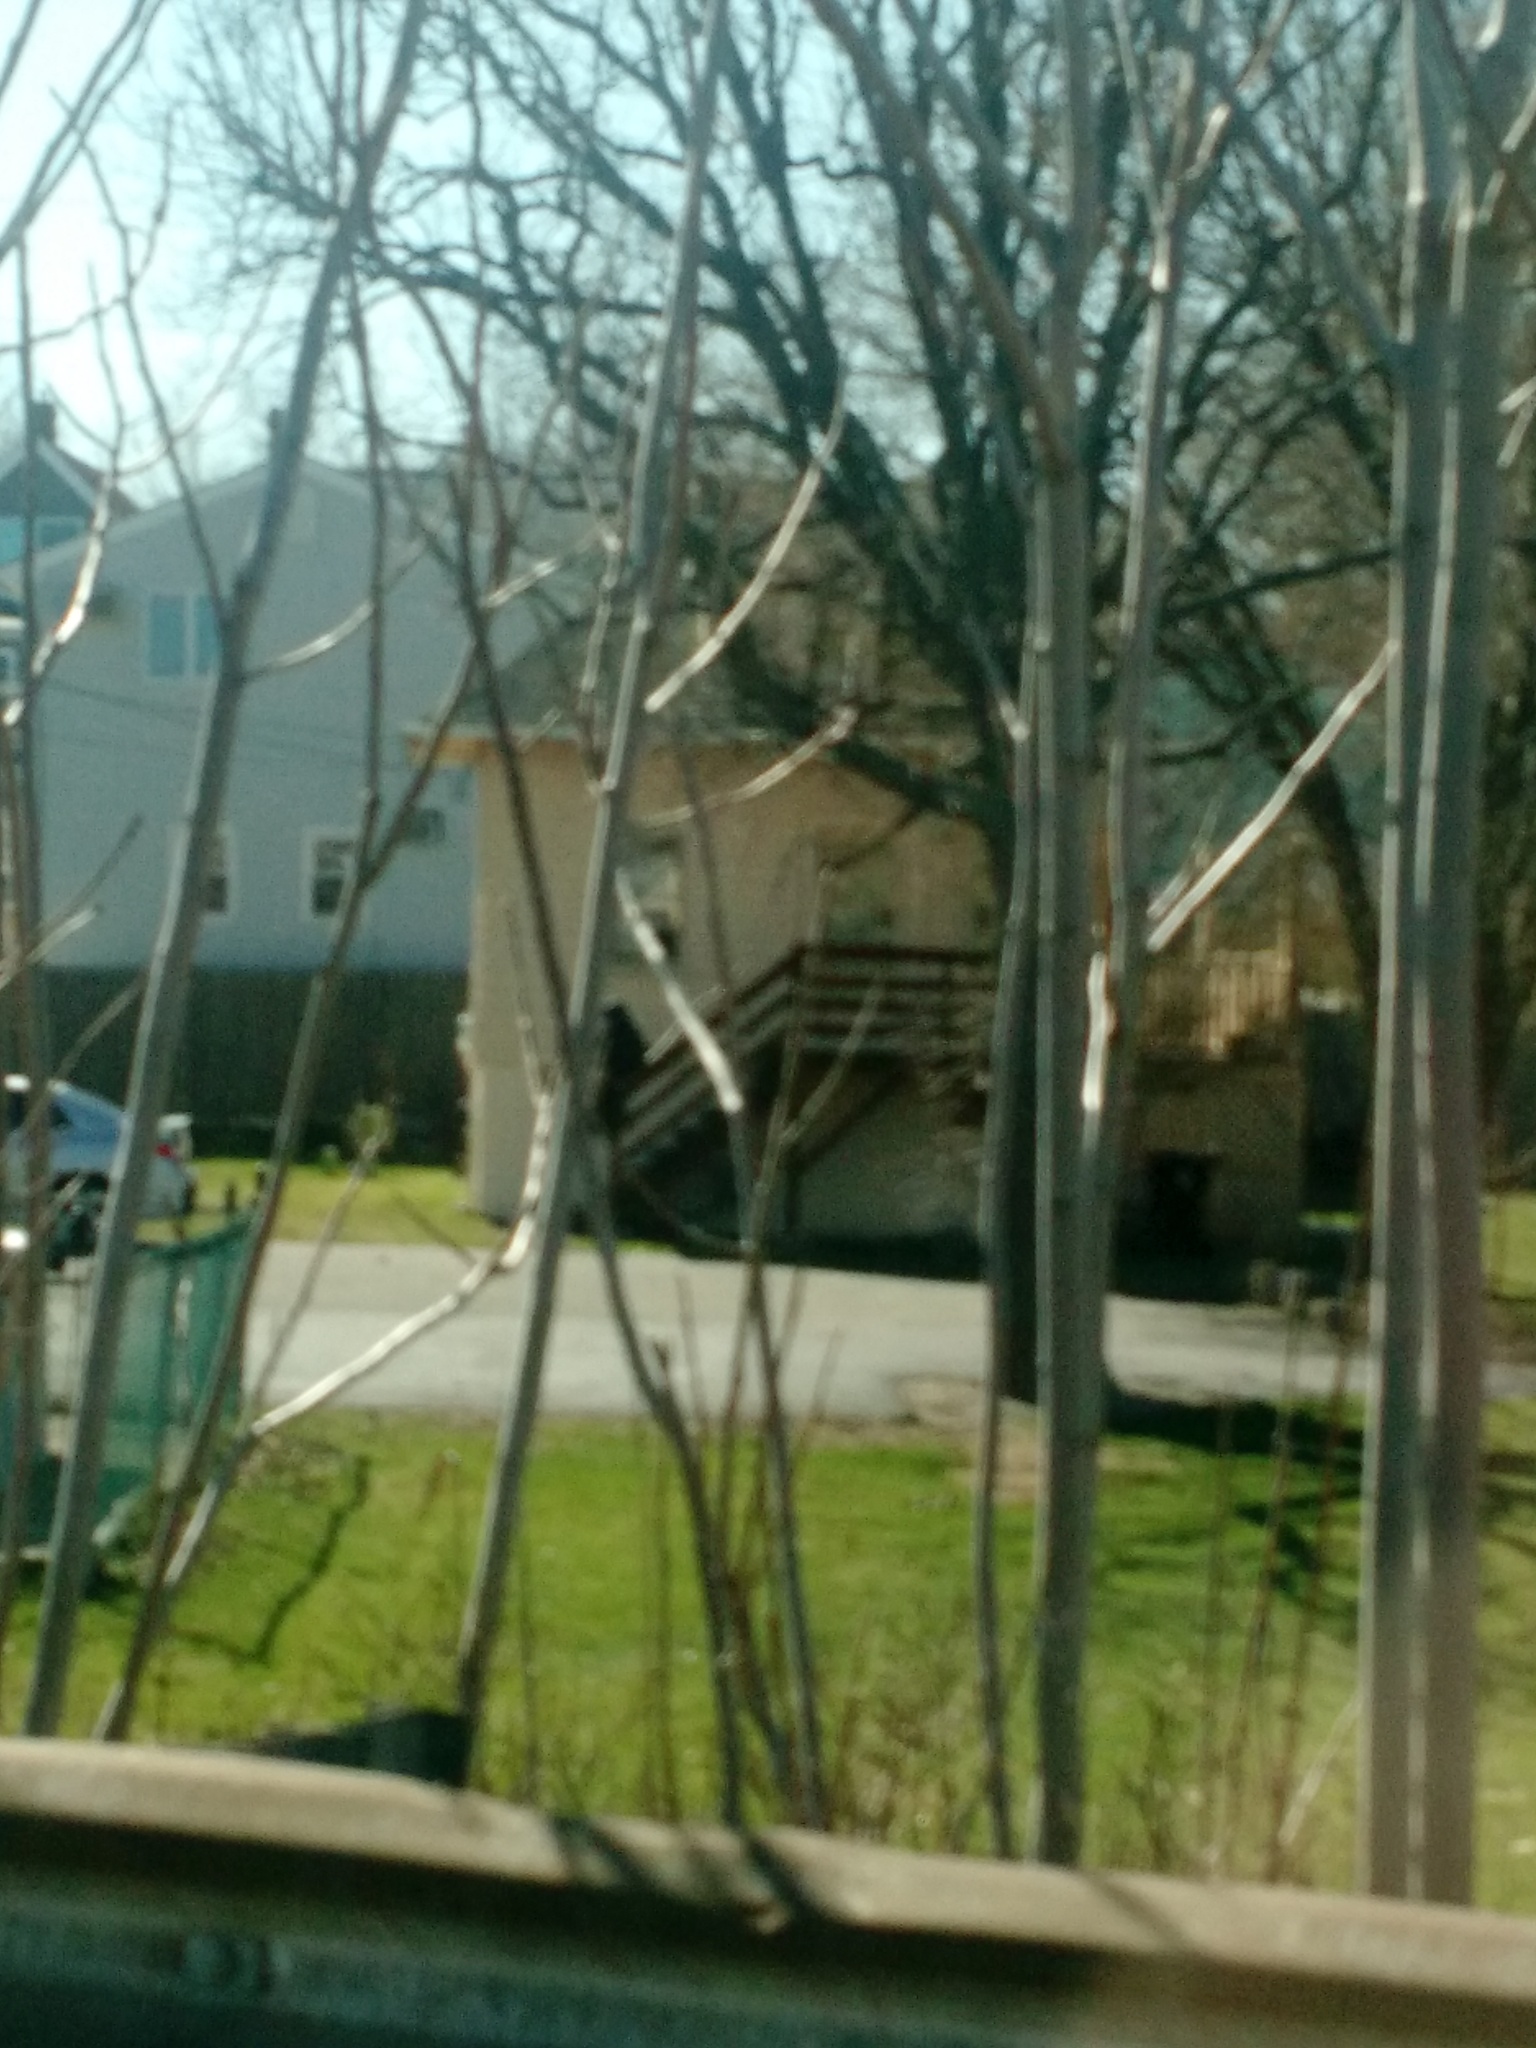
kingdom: Animalia
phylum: Chordata
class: Aves
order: Passeriformes
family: Icteridae
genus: Quiscalus
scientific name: Quiscalus quiscula
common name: Common grackle
